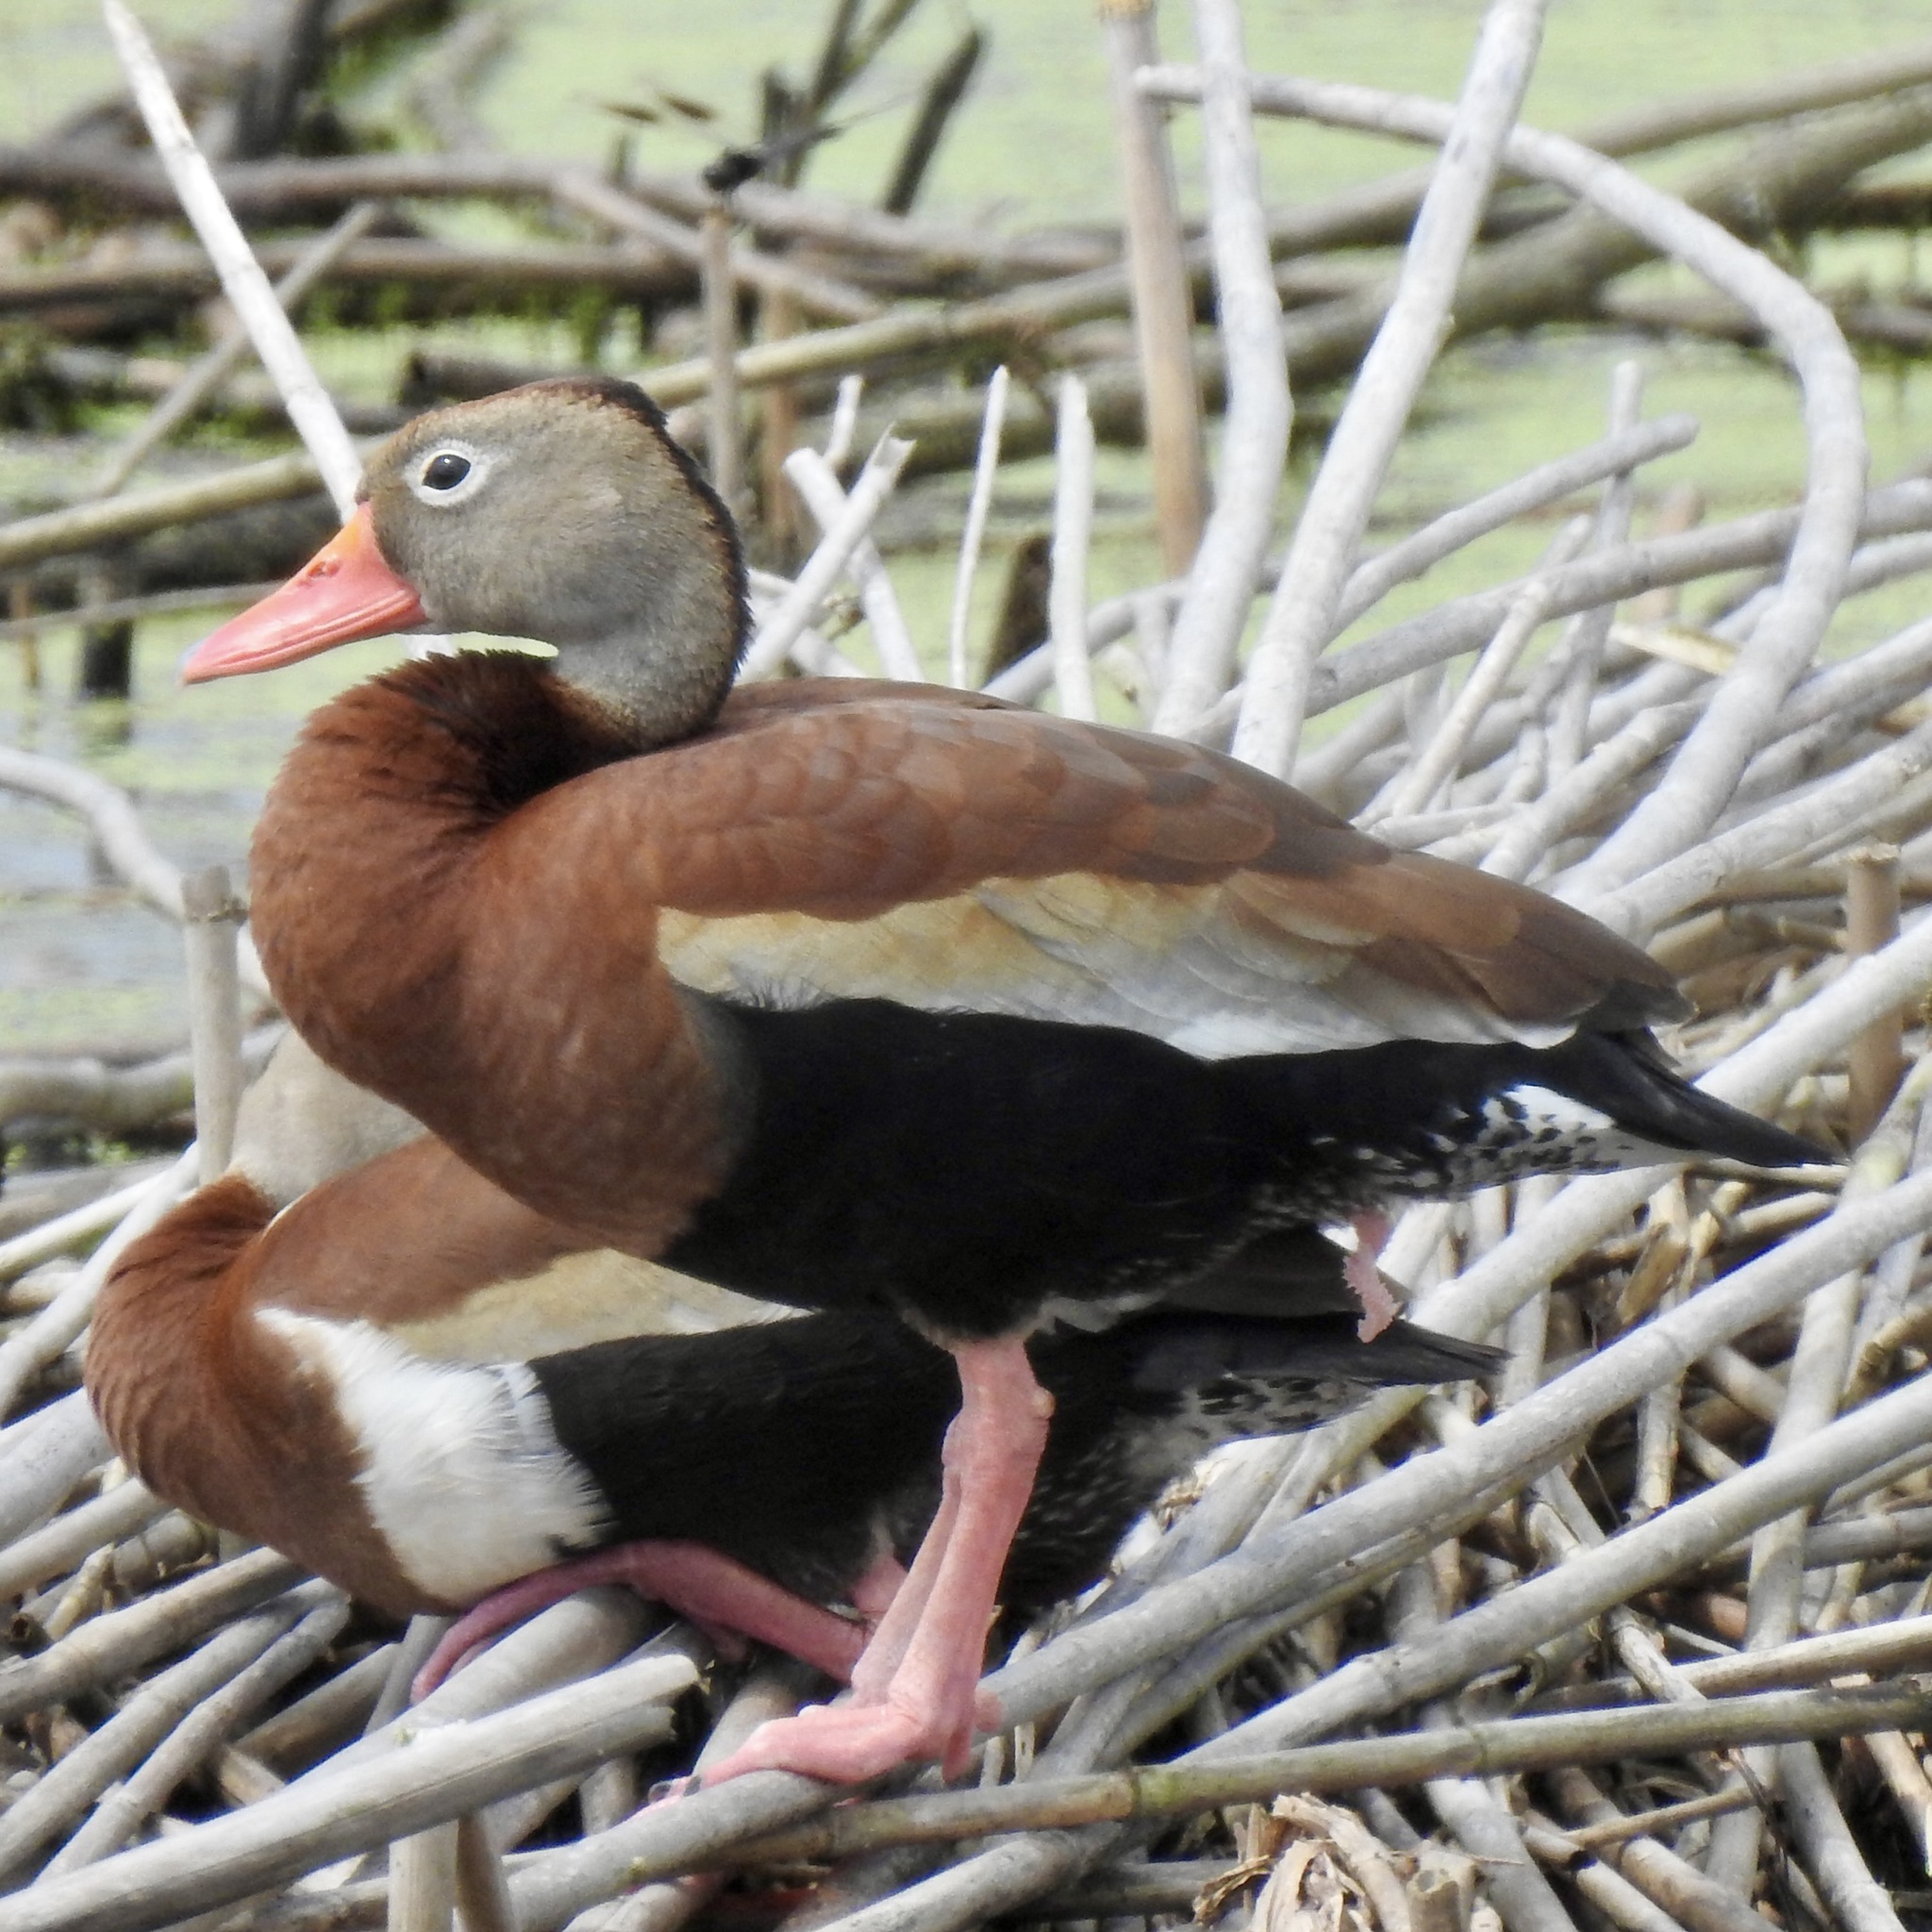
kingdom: Animalia
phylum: Chordata
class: Aves
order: Anseriformes
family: Anatidae
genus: Dendrocygna
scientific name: Dendrocygna autumnalis
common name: Black-bellied whistling duck
